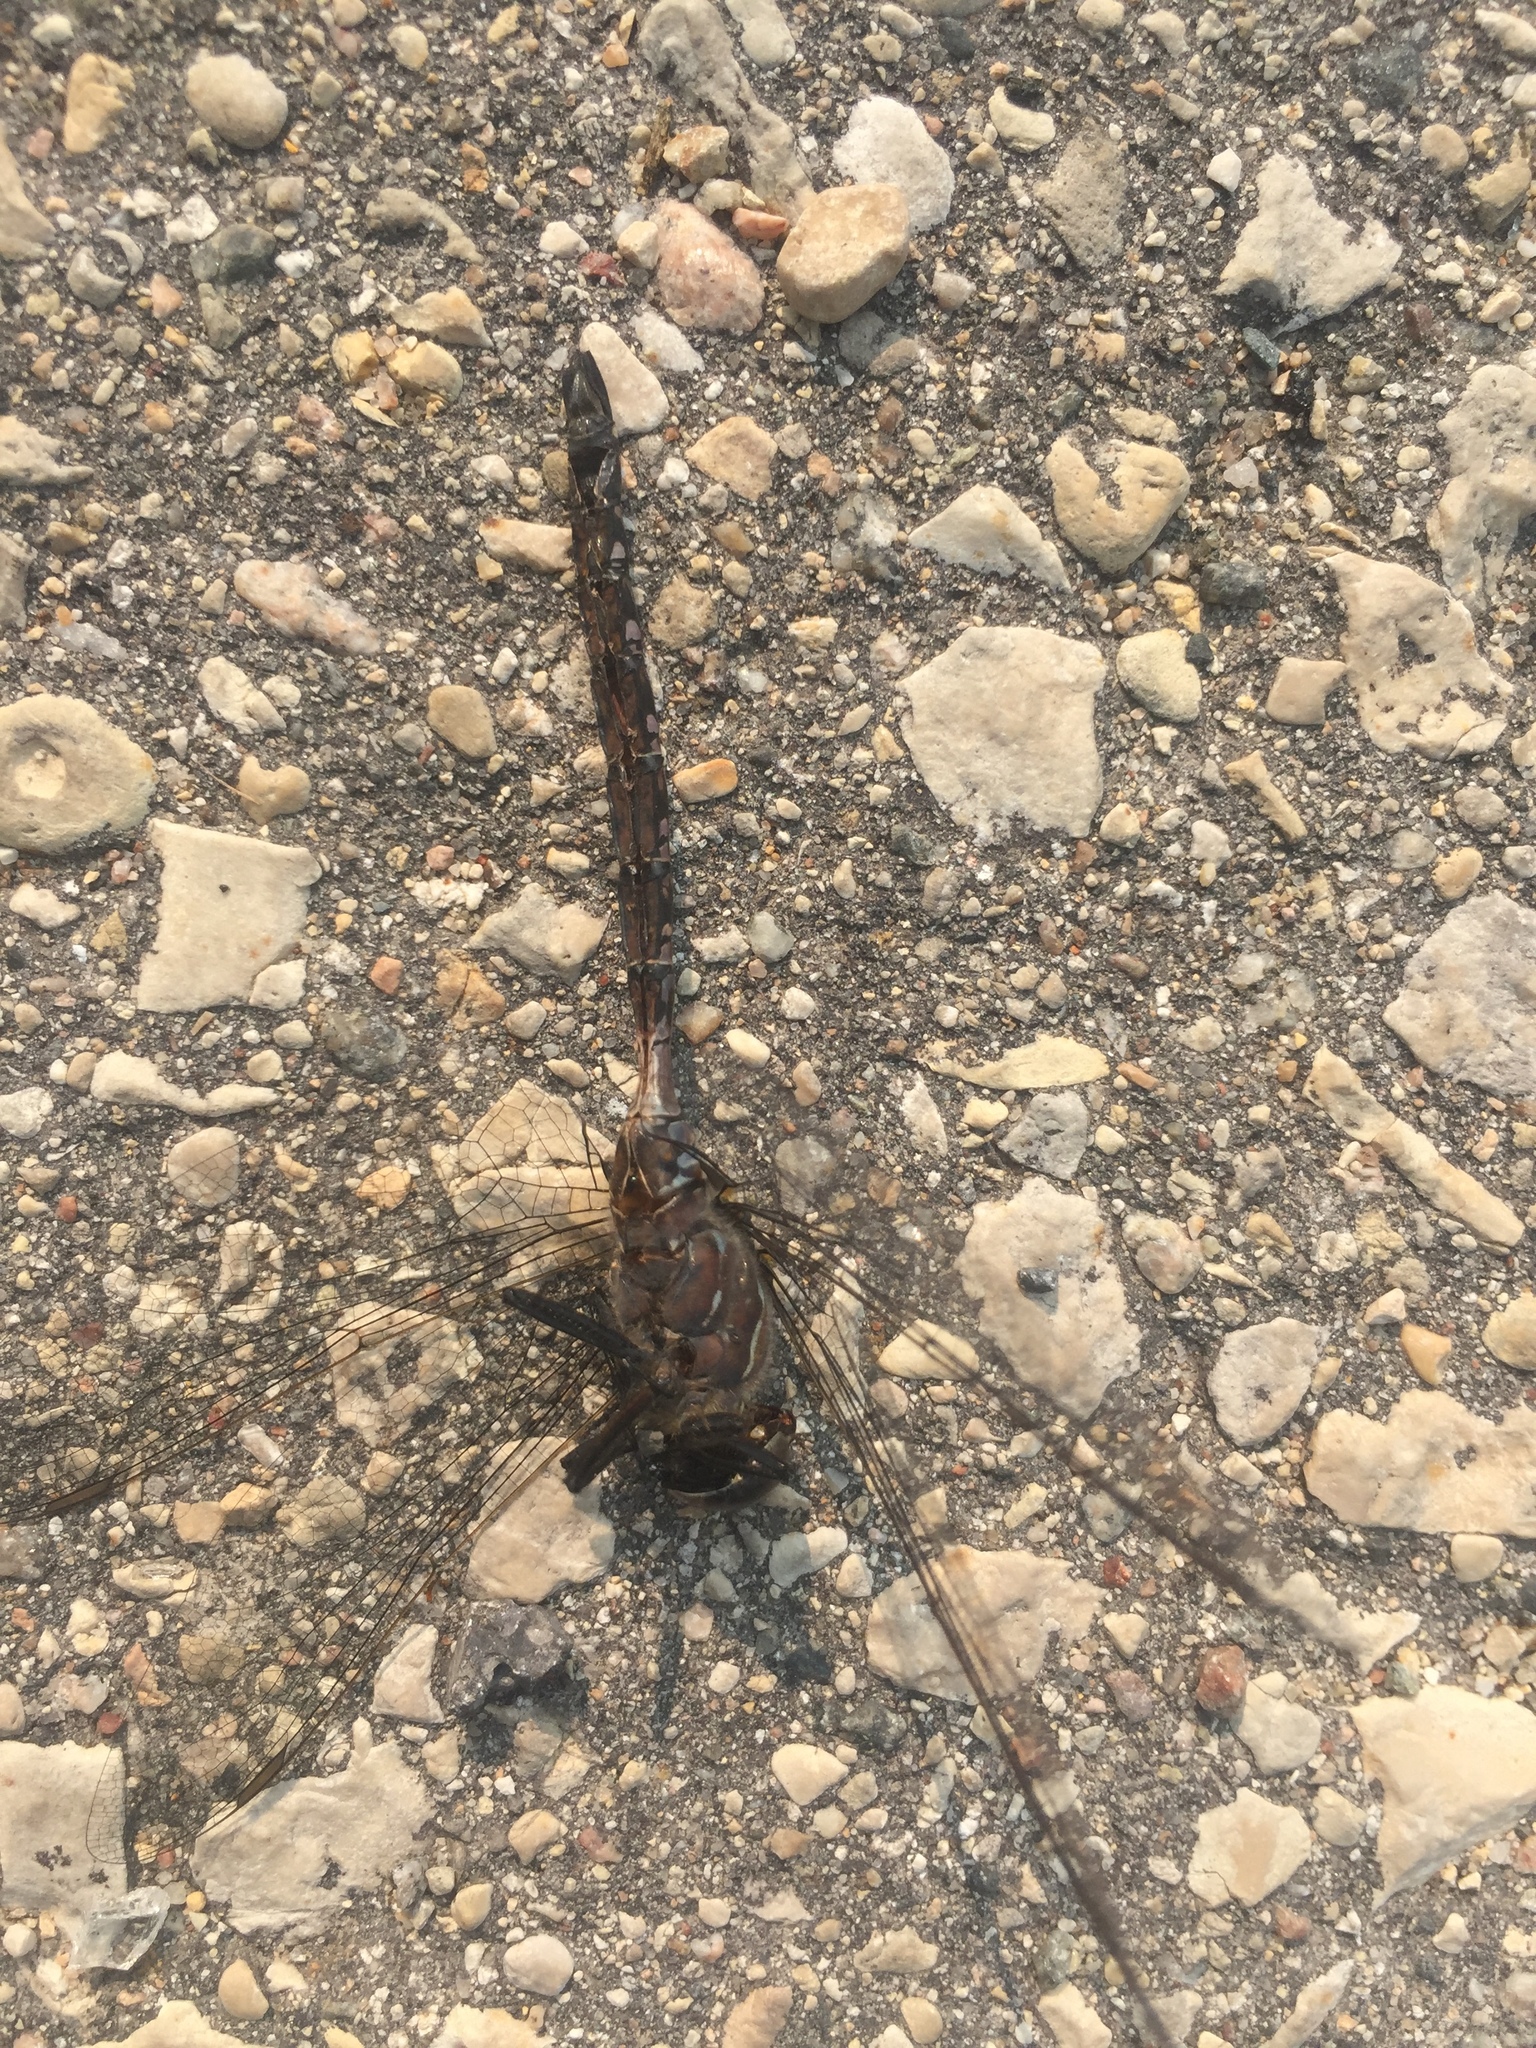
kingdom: Animalia
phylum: Arthropoda
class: Insecta
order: Odonata
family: Aeshnidae
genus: Aeshna
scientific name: Aeshna interrupta
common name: Variable darner
